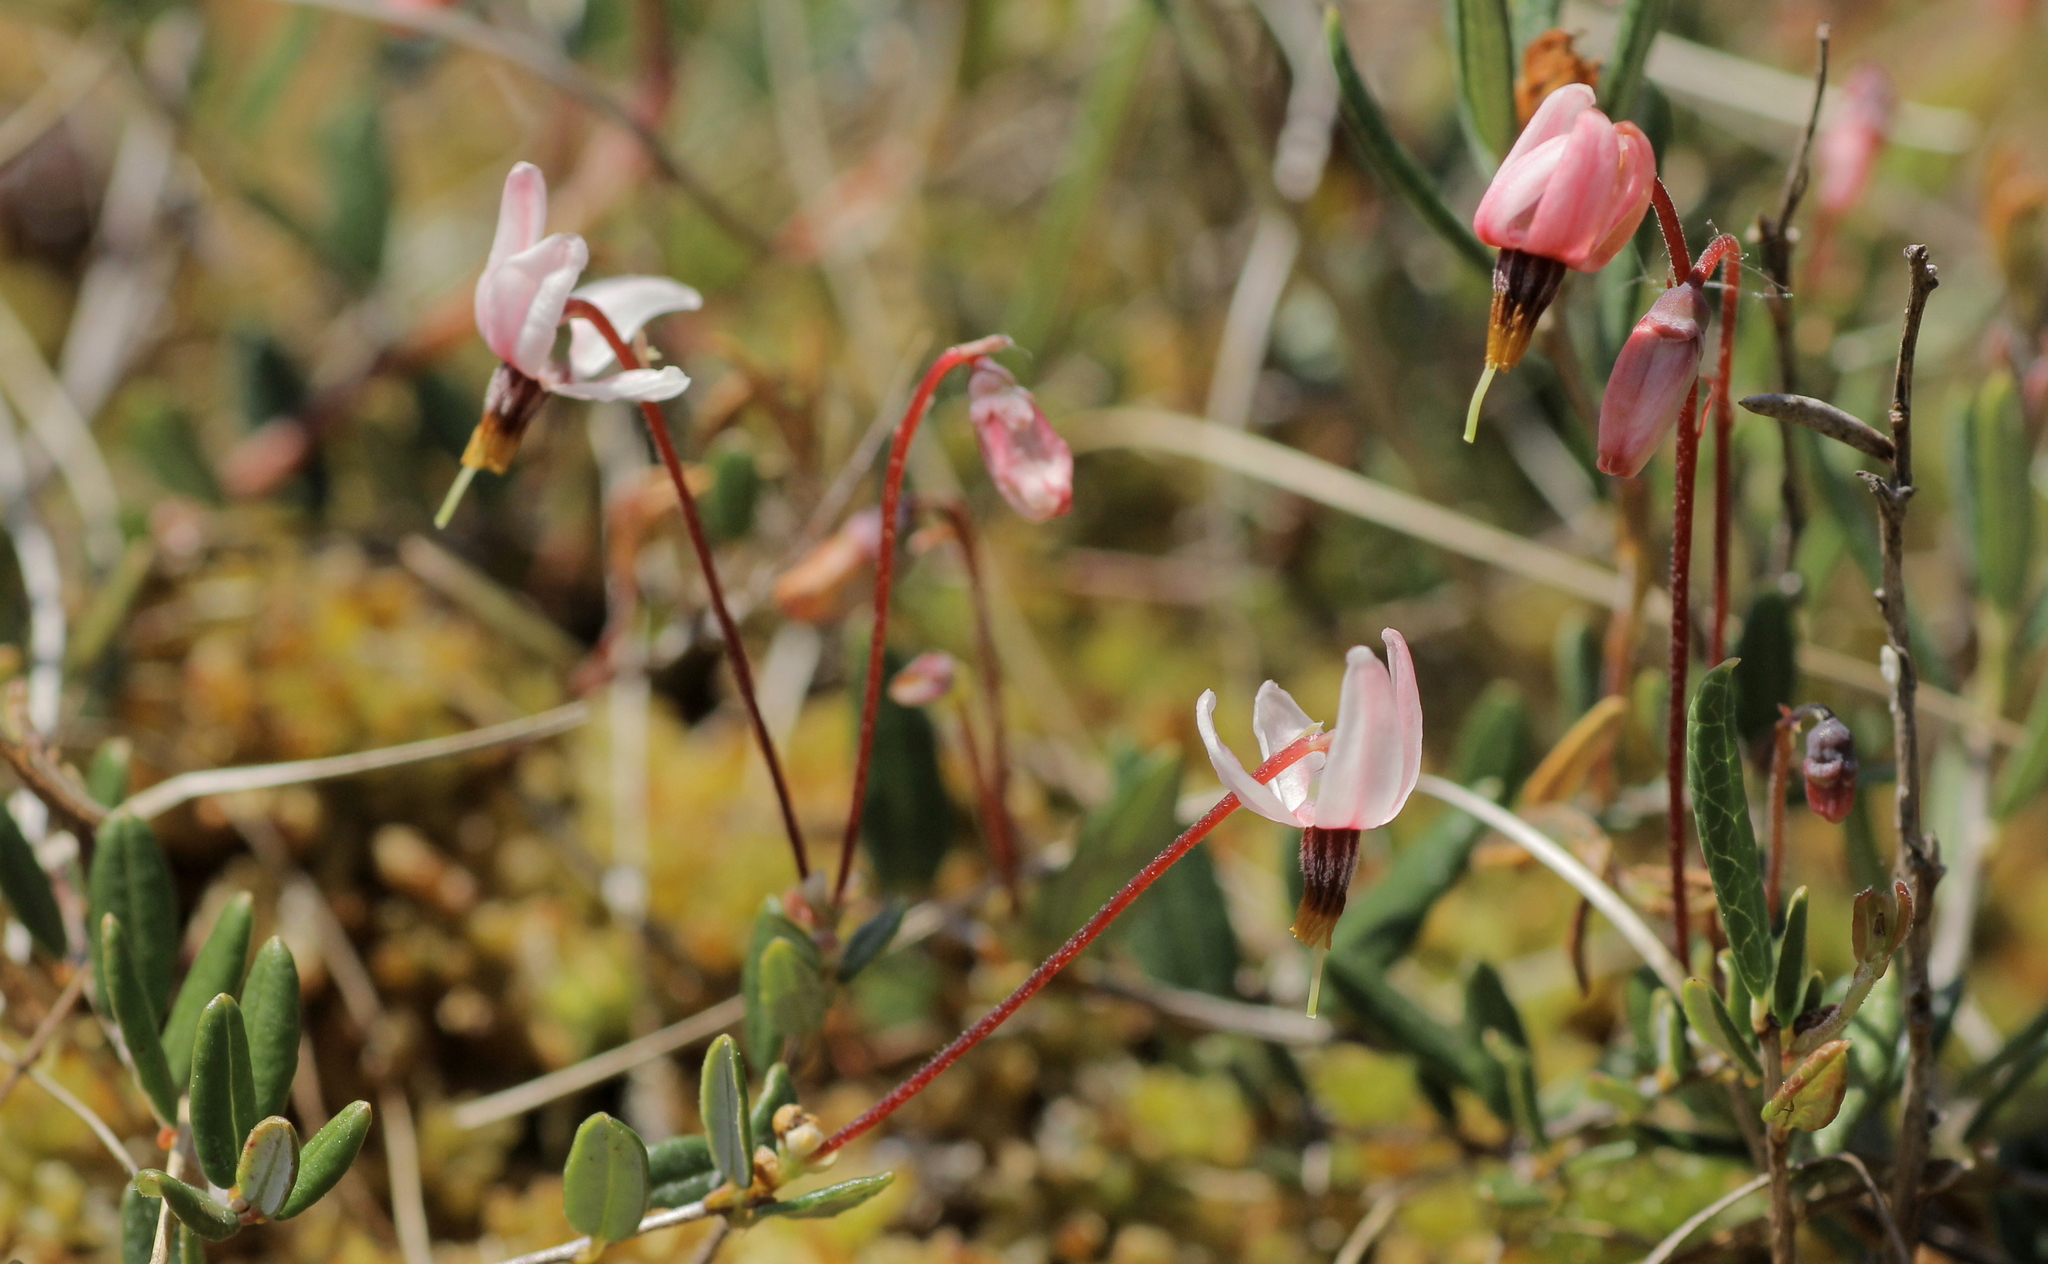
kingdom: Plantae
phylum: Tracheophyta
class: Magnoliopsida
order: Ericales
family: Ericaceae
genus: Vaccinium
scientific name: Vaccinium oxycoccos
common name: Cranberry
